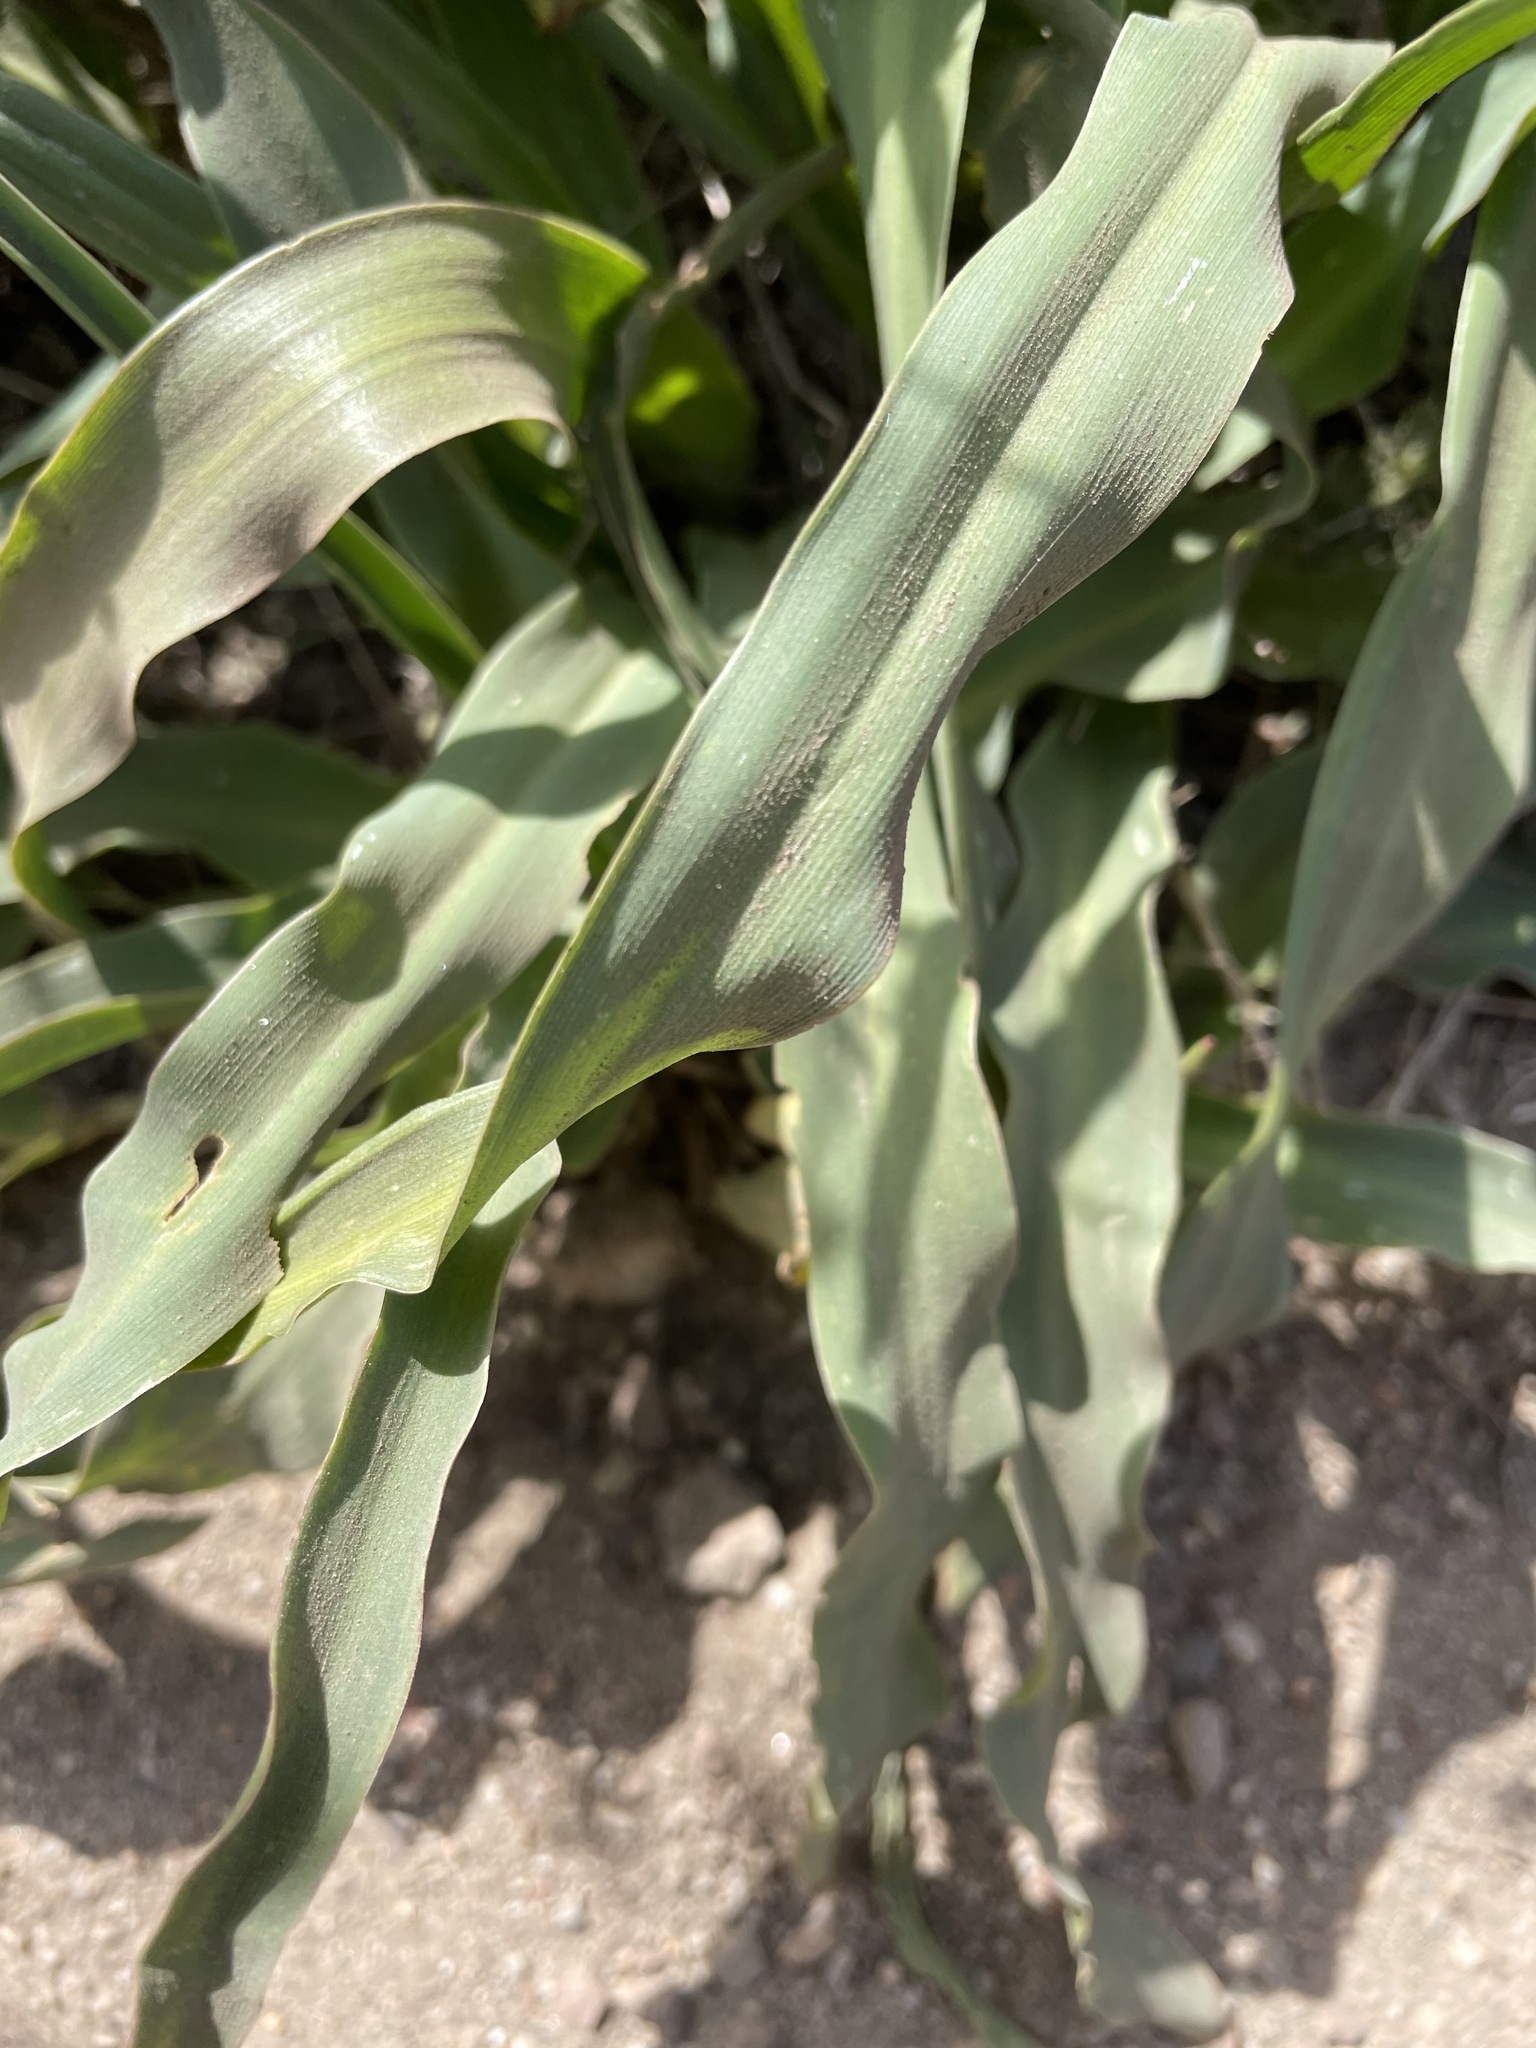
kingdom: Plantae
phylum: Tracheophyta
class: Liliopsida
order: Asparagales
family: Asparagaceae
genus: Chlorogalum
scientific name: Chlorogalum pomeridianum
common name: Amole
